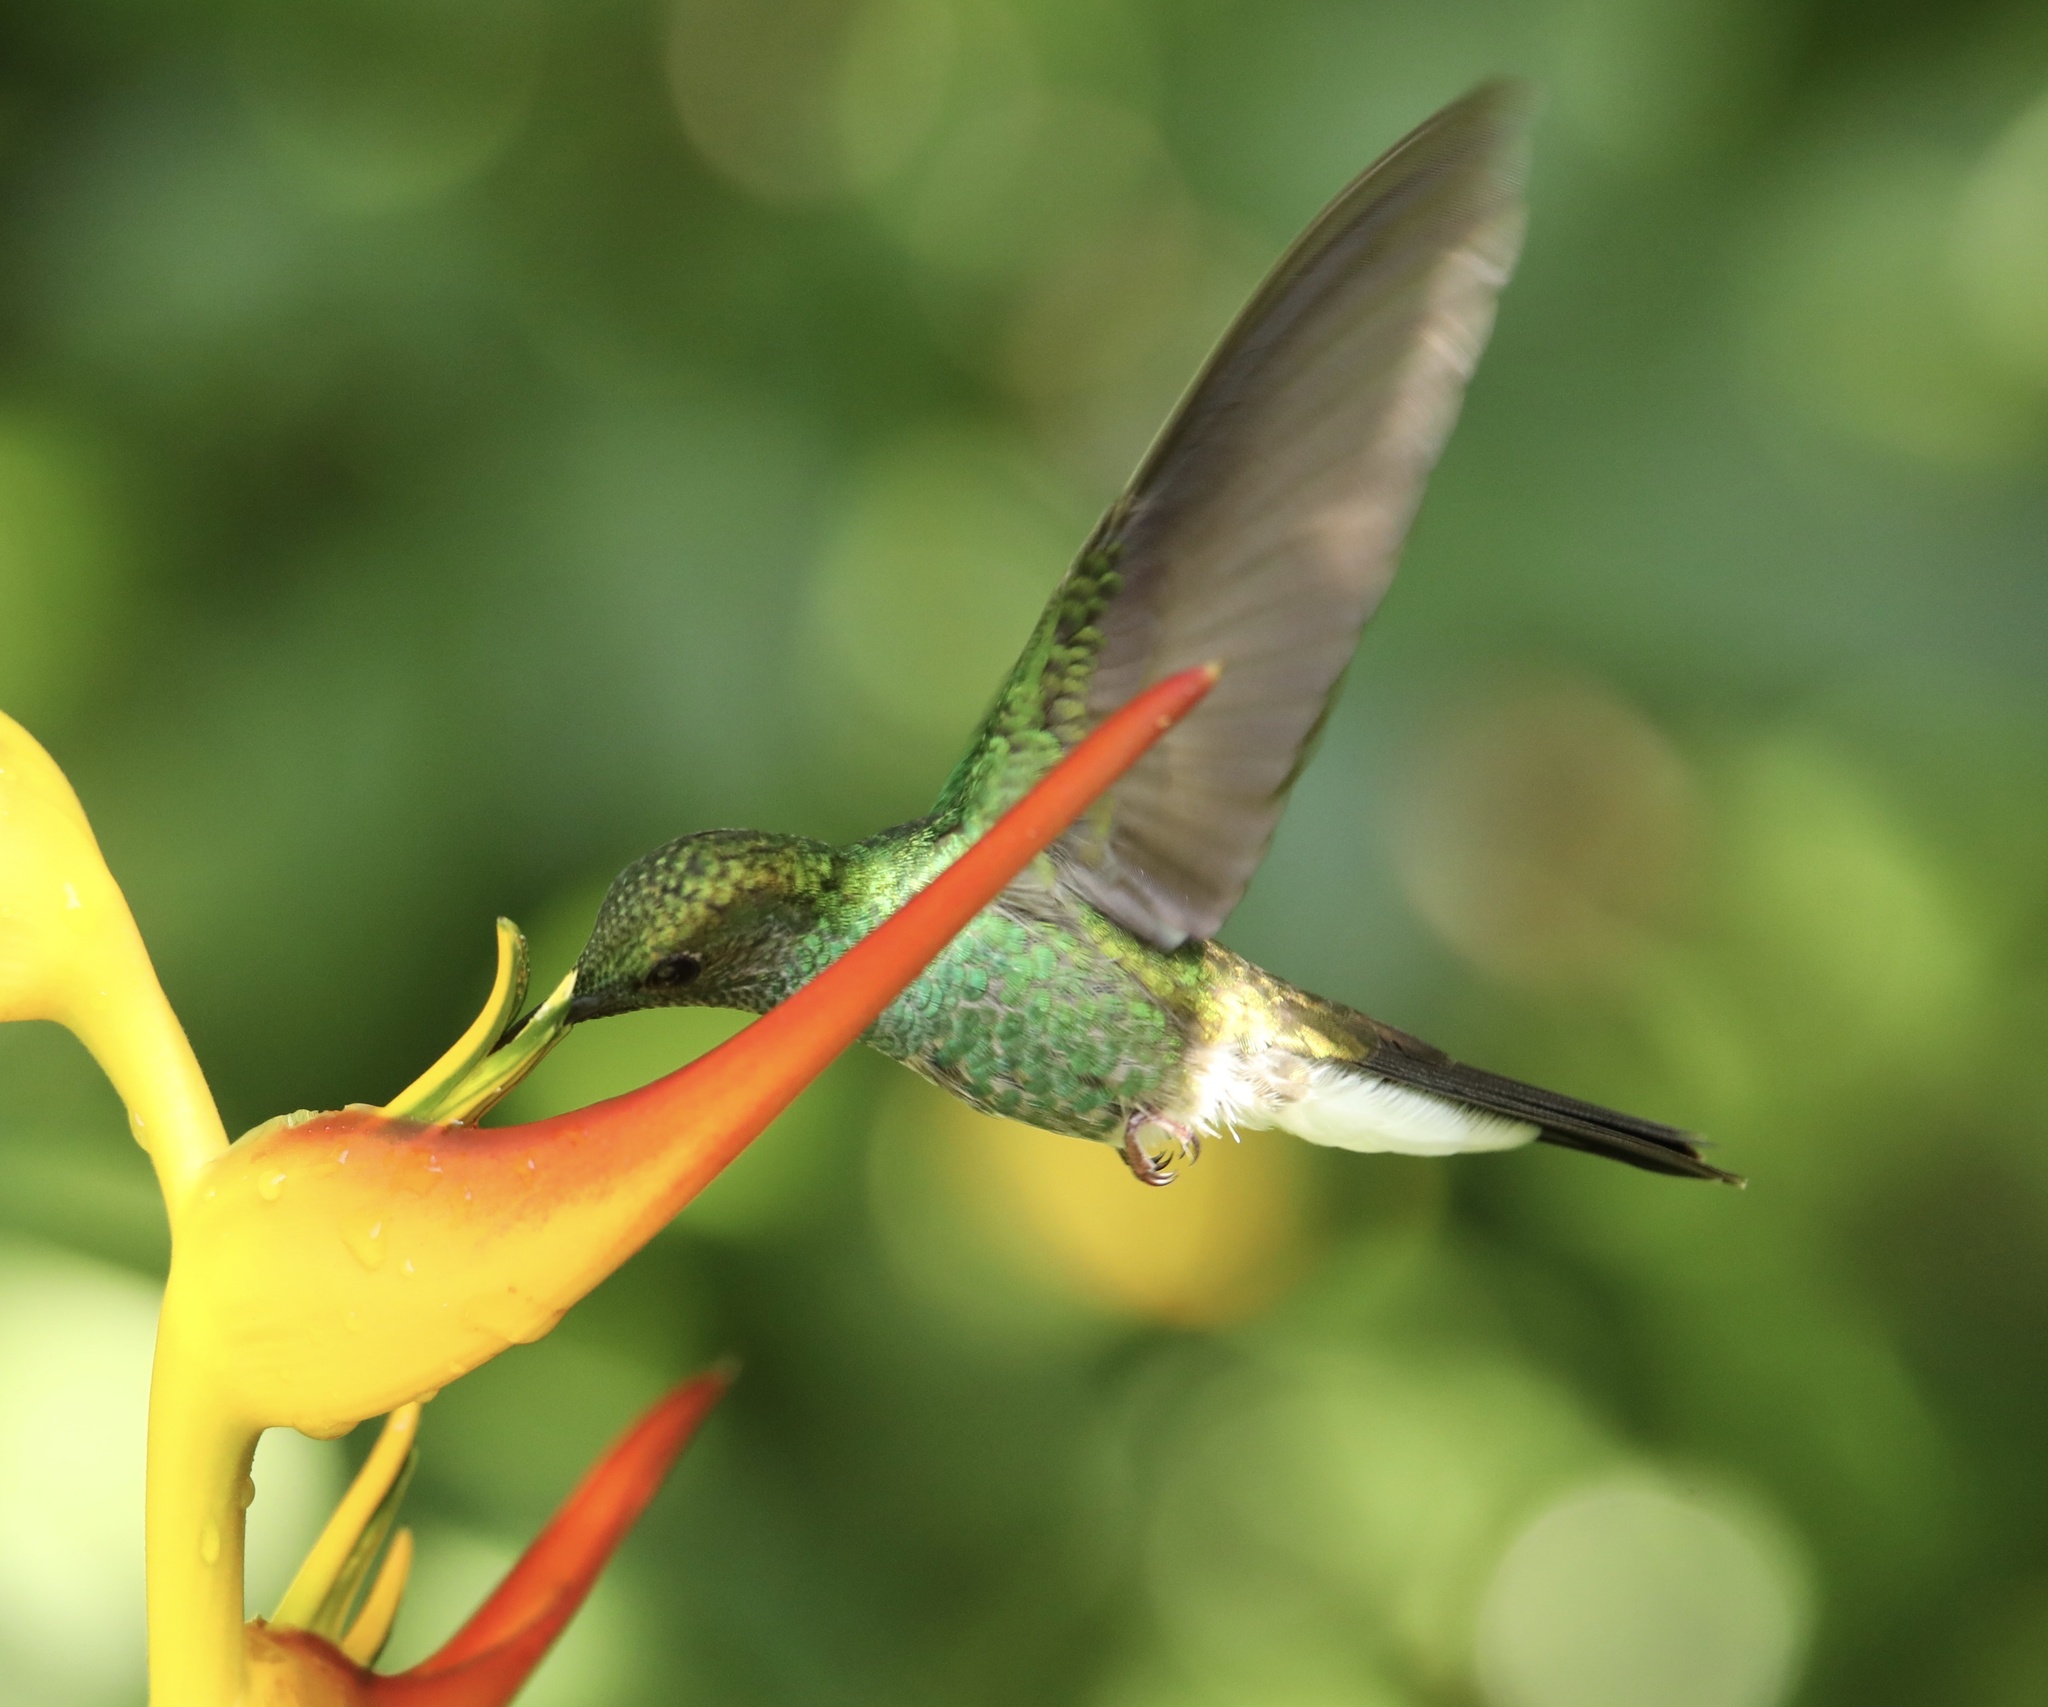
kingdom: Animalia
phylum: Chordata
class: Aves
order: Apodiformes
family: Trochilidae
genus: Chalybura
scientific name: Chalybura buffonii
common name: White-vented plumeleteer
